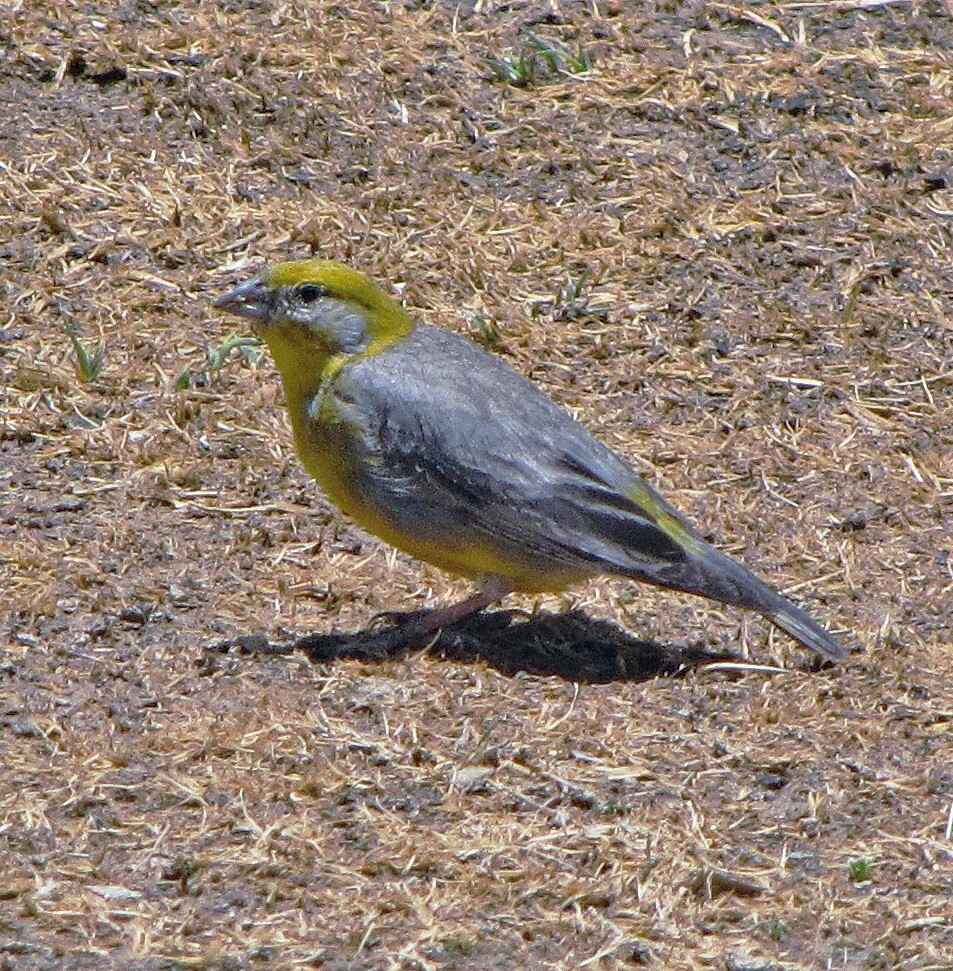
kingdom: Animalia
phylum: Chordata
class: Aves
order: Passeriformes
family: Thraupidae
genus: Sicalis
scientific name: Sicalis uropigyalis
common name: Bright-rumped yellow finch
